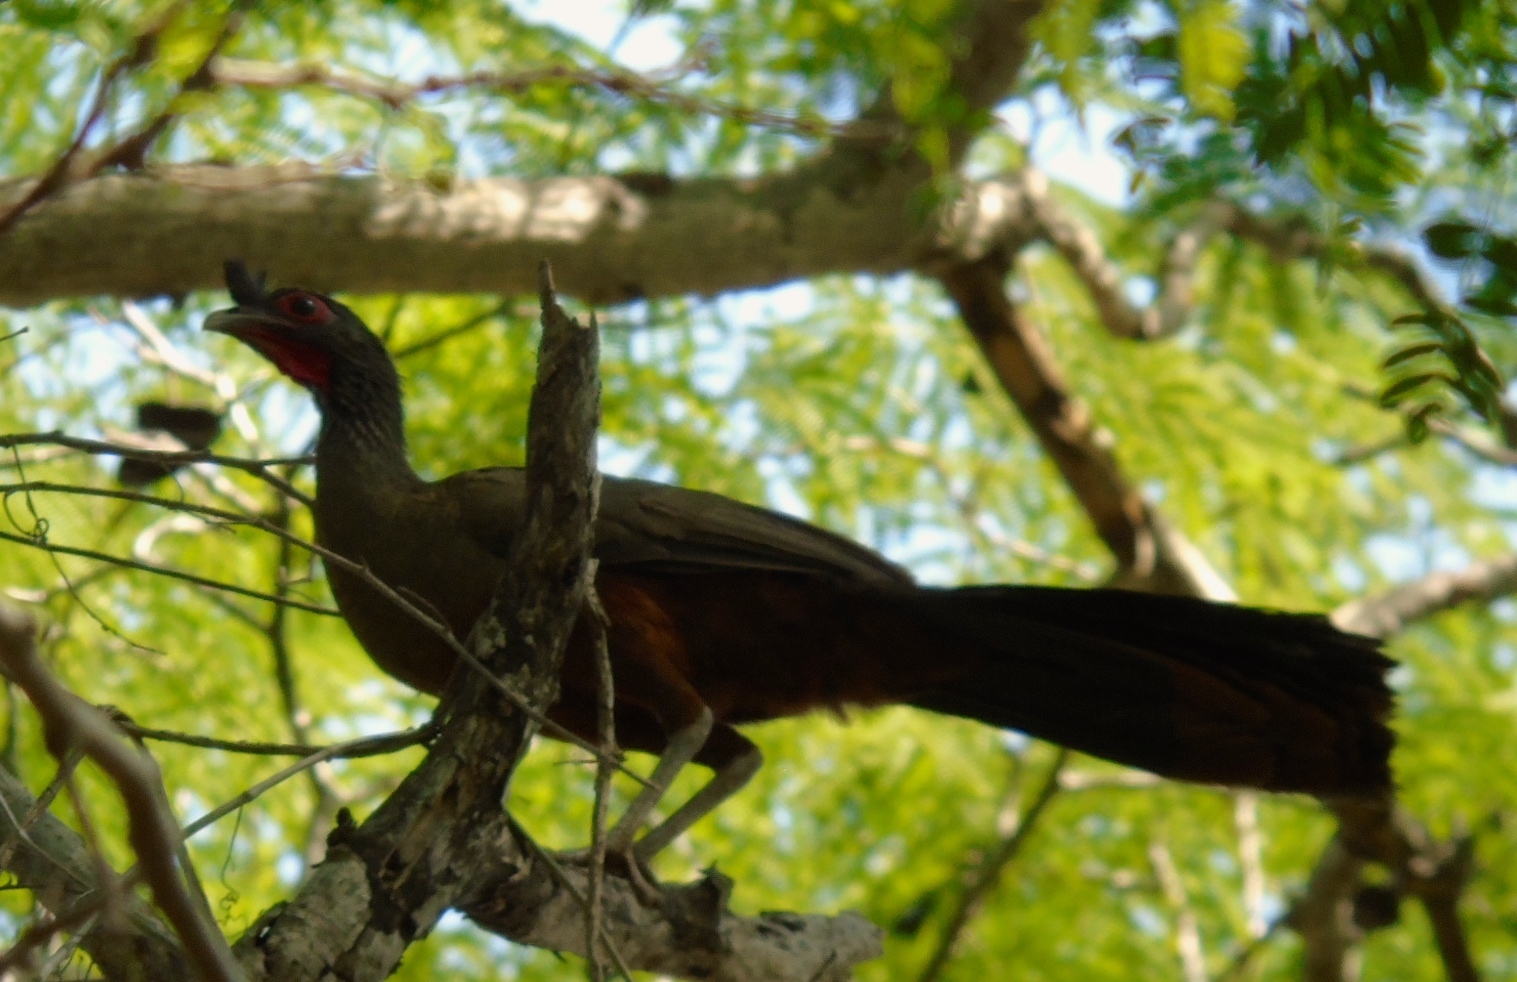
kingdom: Animalia
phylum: Chordata
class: Aves
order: Galliformes
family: Cracidae
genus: Ortalis
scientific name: Ortalis wagleri
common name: Rufous-bellied chachalaca
